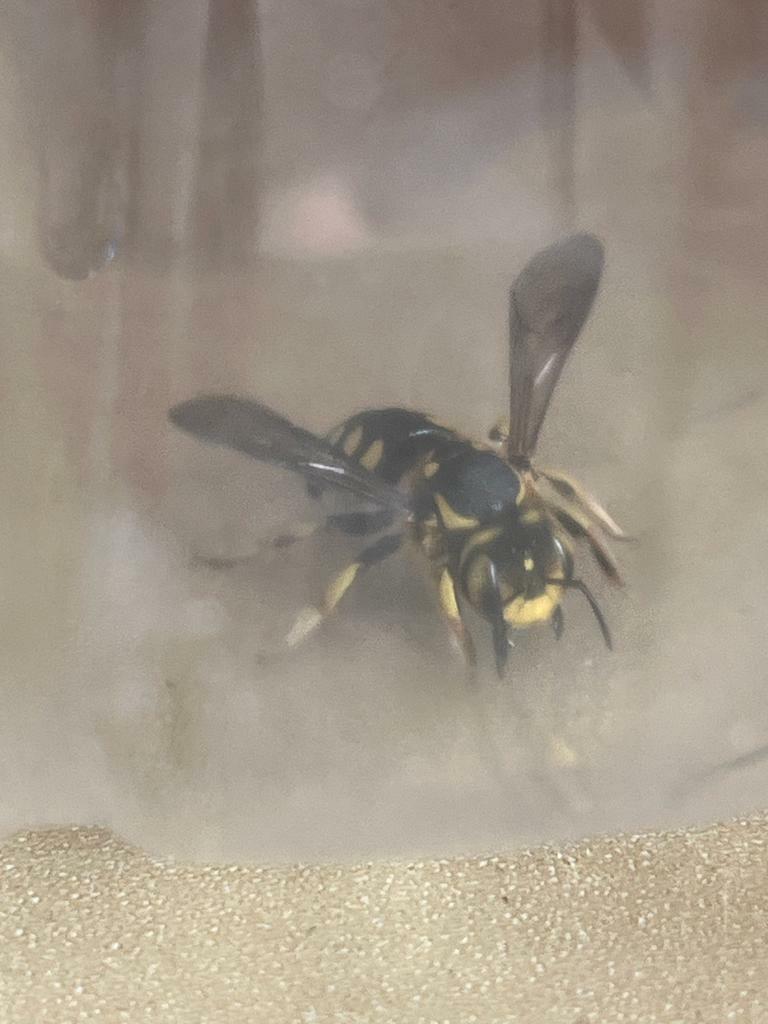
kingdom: Animalia
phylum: Arthropoda
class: Insecta
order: Hymenoptera
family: Megachilidae
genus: Anthidium
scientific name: Anthidium florentinum
